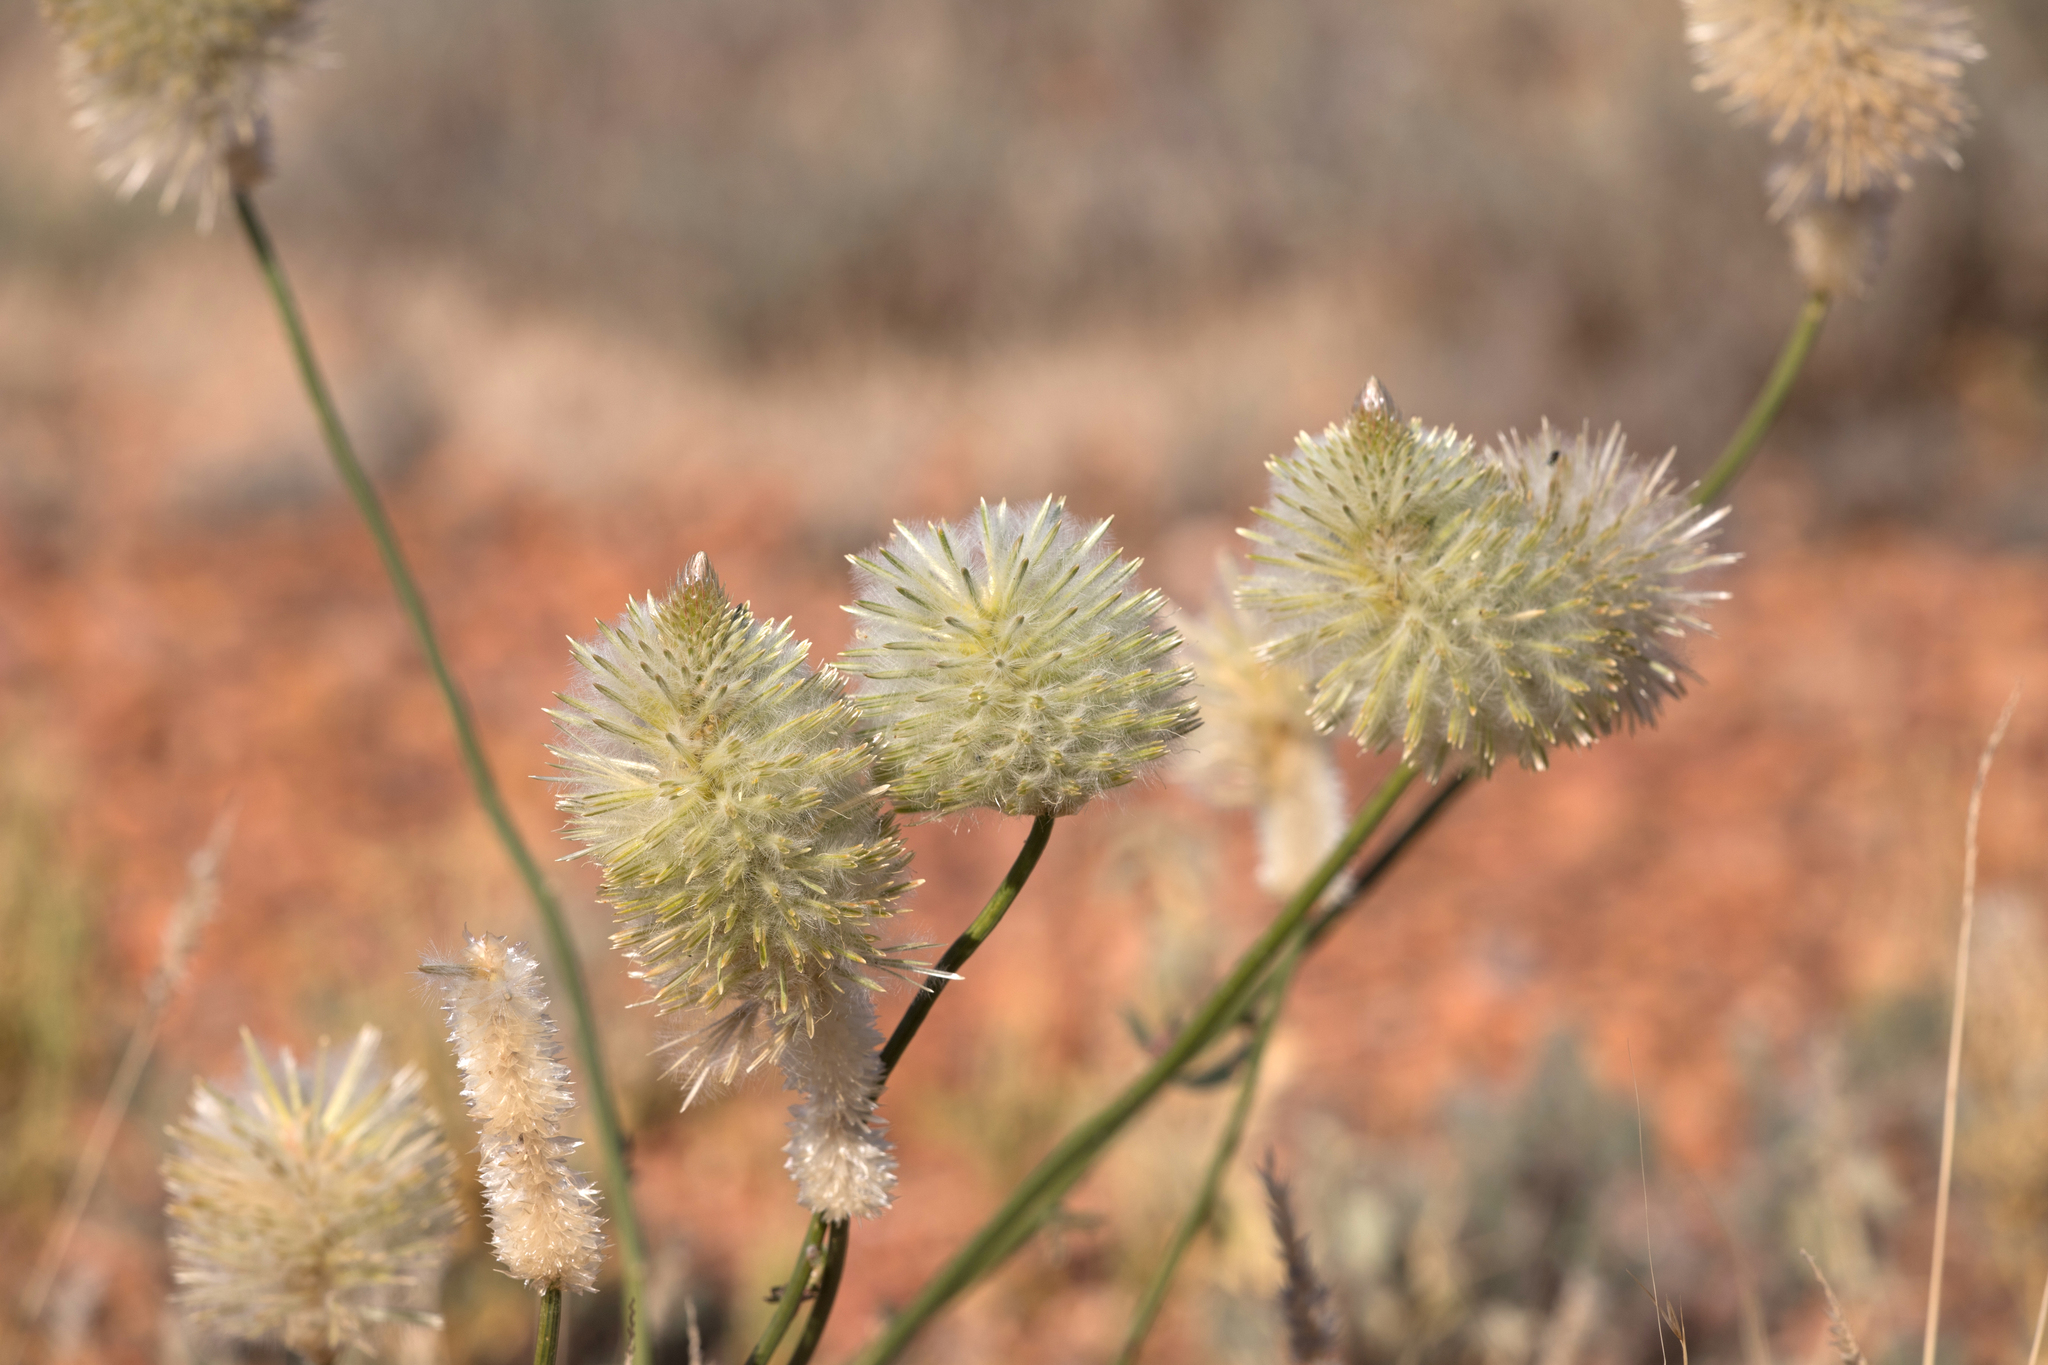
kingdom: Plantae
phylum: Tracheophyta
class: Magnoliopsida
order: Caryophyllales
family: Amaranthaceae
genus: Ptilotus
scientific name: Ptilotus xerophilus
